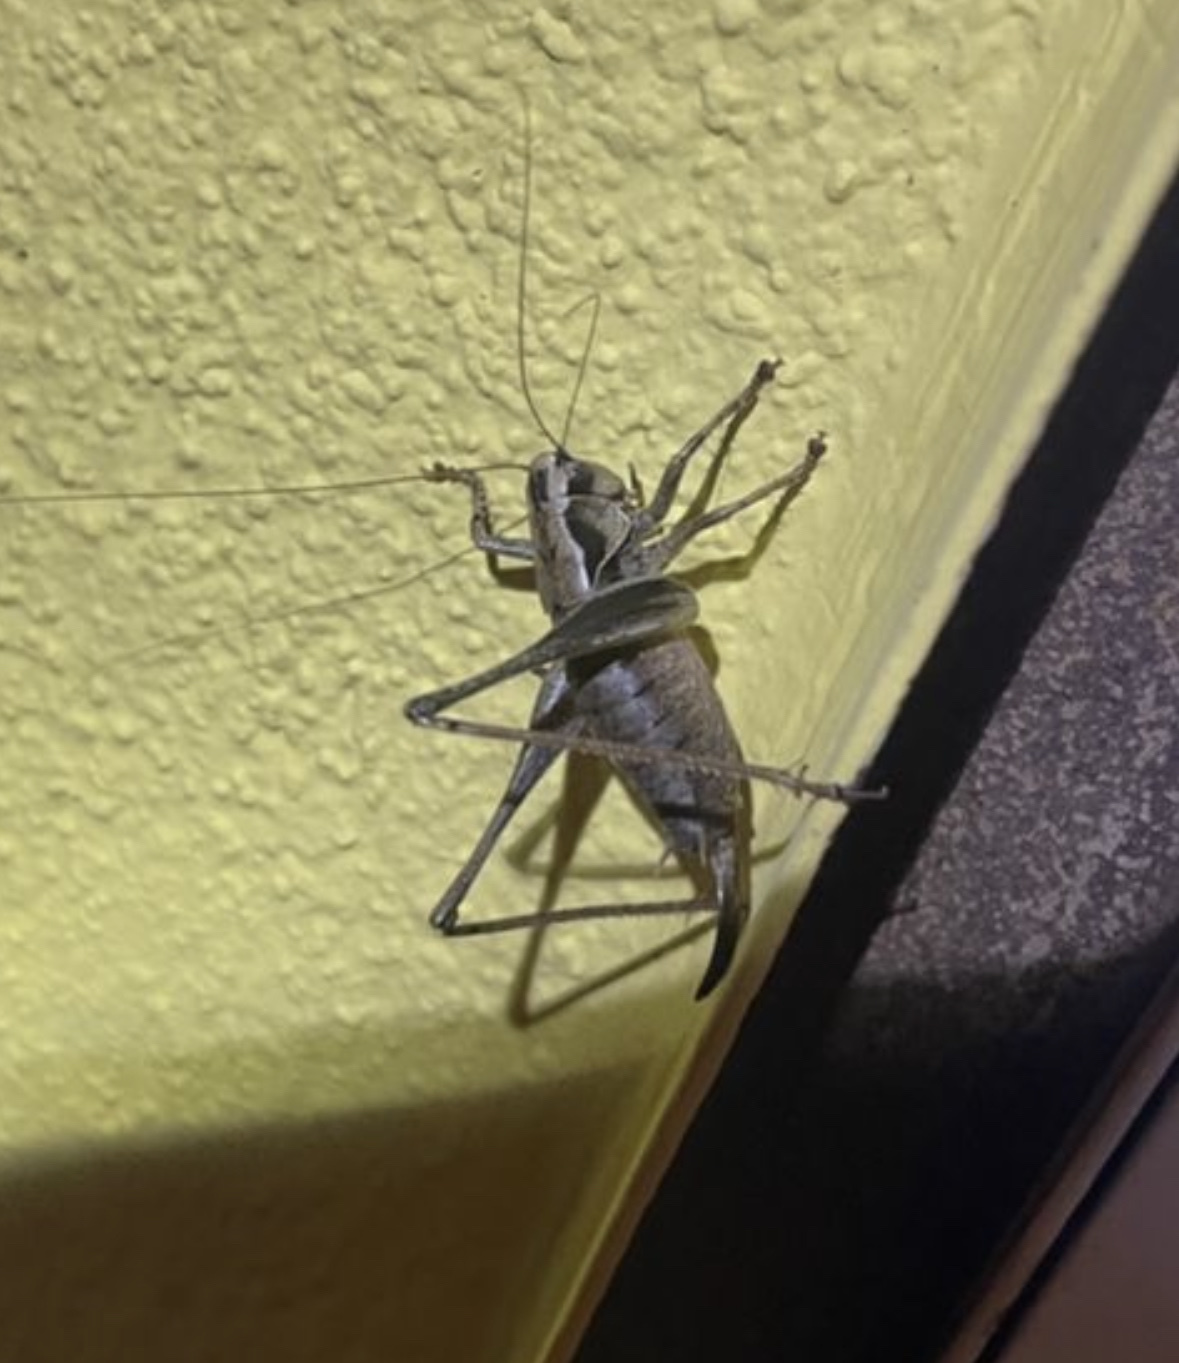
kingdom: Animalia
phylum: Arthropoda
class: Insecta
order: Orthoptera
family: Tettigoniidae
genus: Pholidoptera
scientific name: Pholidoptera griseoaptera
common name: Dark bush-cricket
